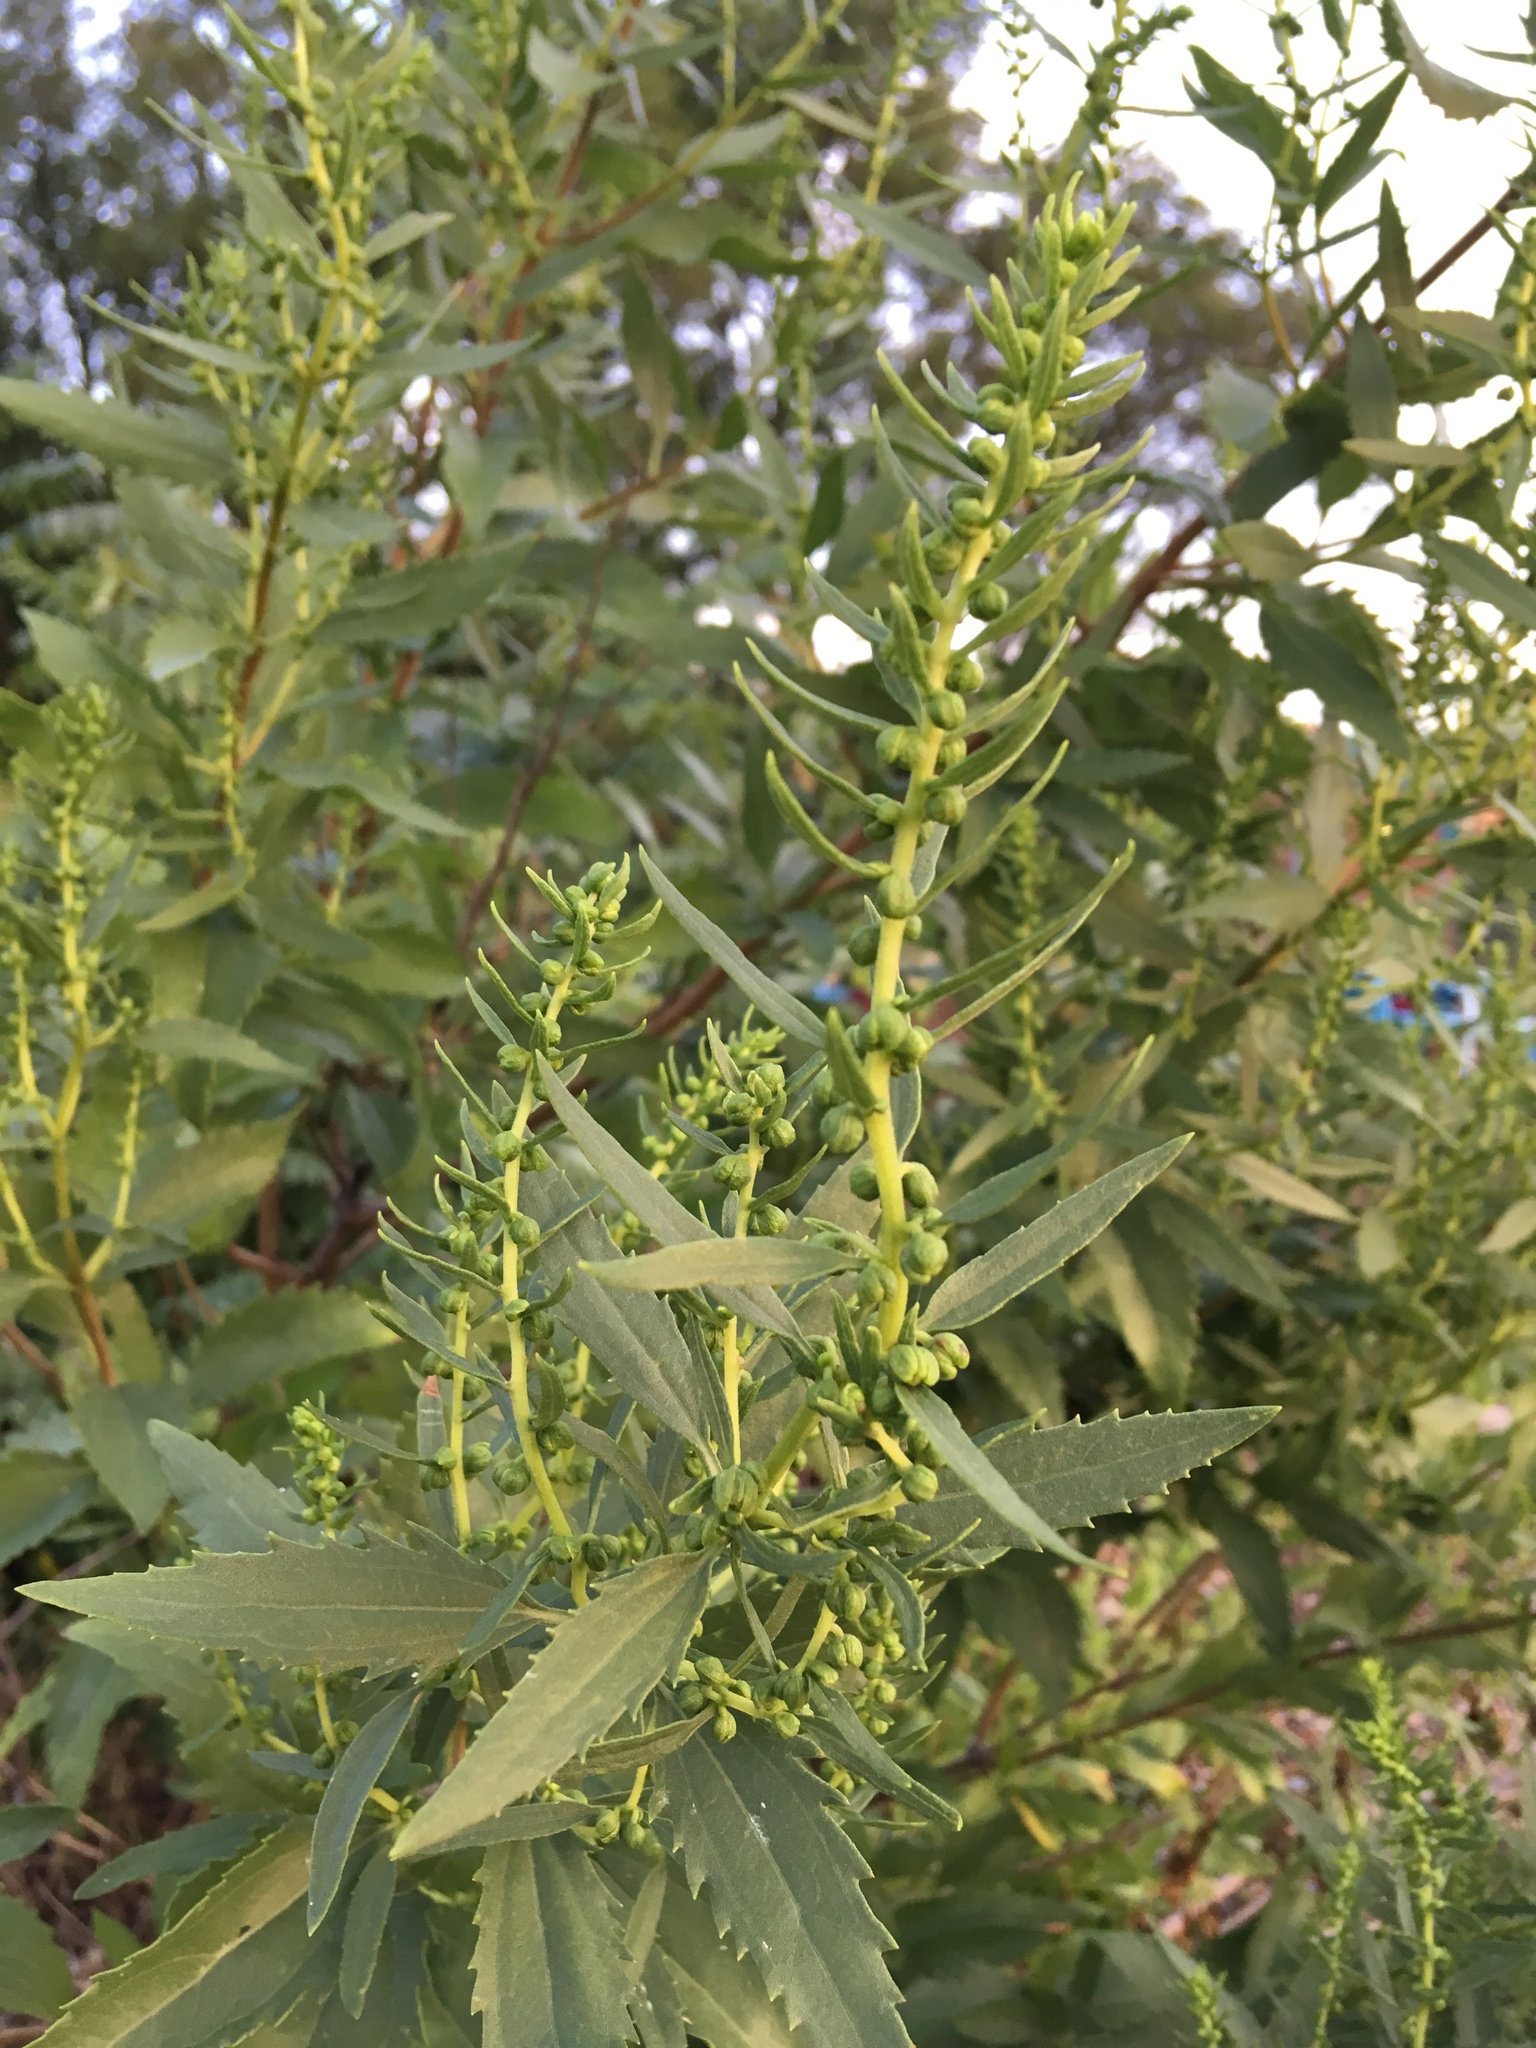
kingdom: Plantae
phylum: Tracheophyta
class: Magnoliopsida
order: Asterales
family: Asteraceae
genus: Iva
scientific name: Iva frutescens
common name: Big-leaved marsh-elder
